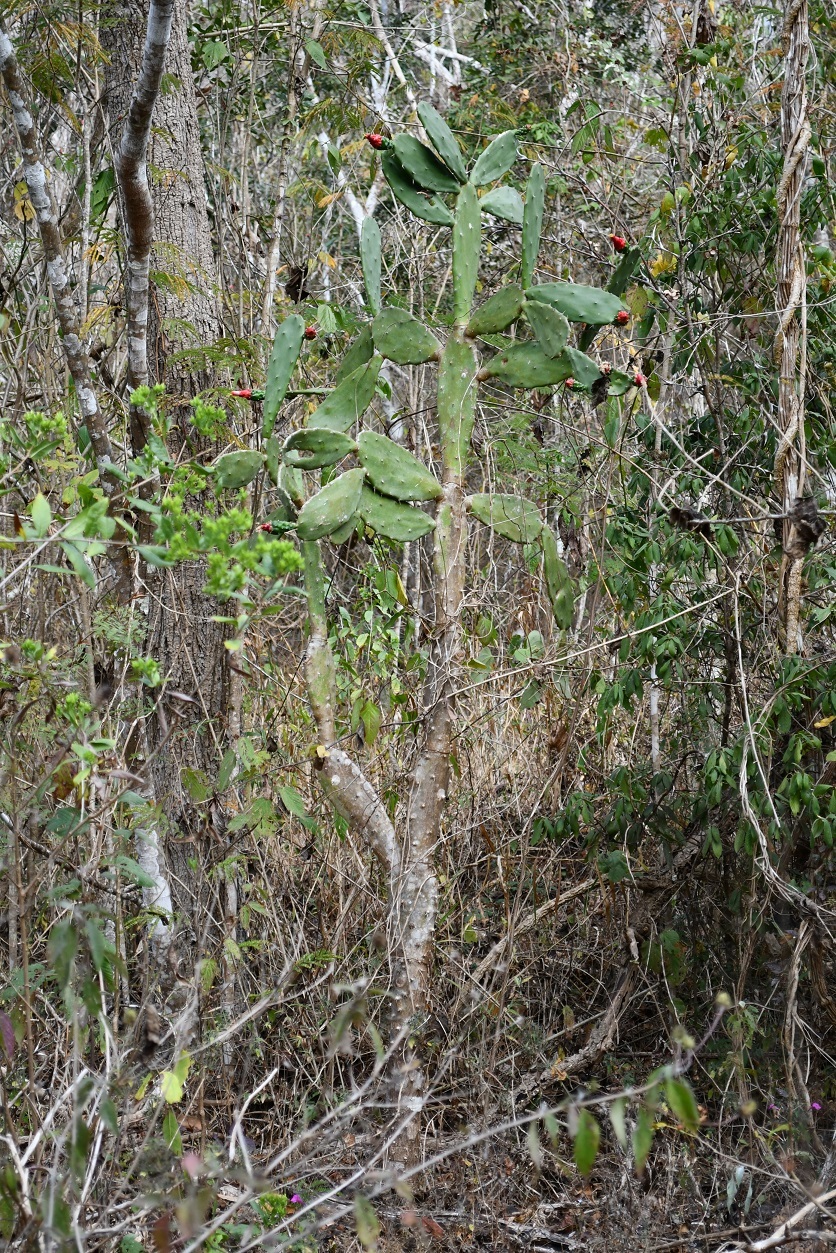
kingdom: Plantae
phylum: Tracheophyta
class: Magnoliopsida
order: Caryophyllales
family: Cactaceae
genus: Opuntia
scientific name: Opuntia dejecta
